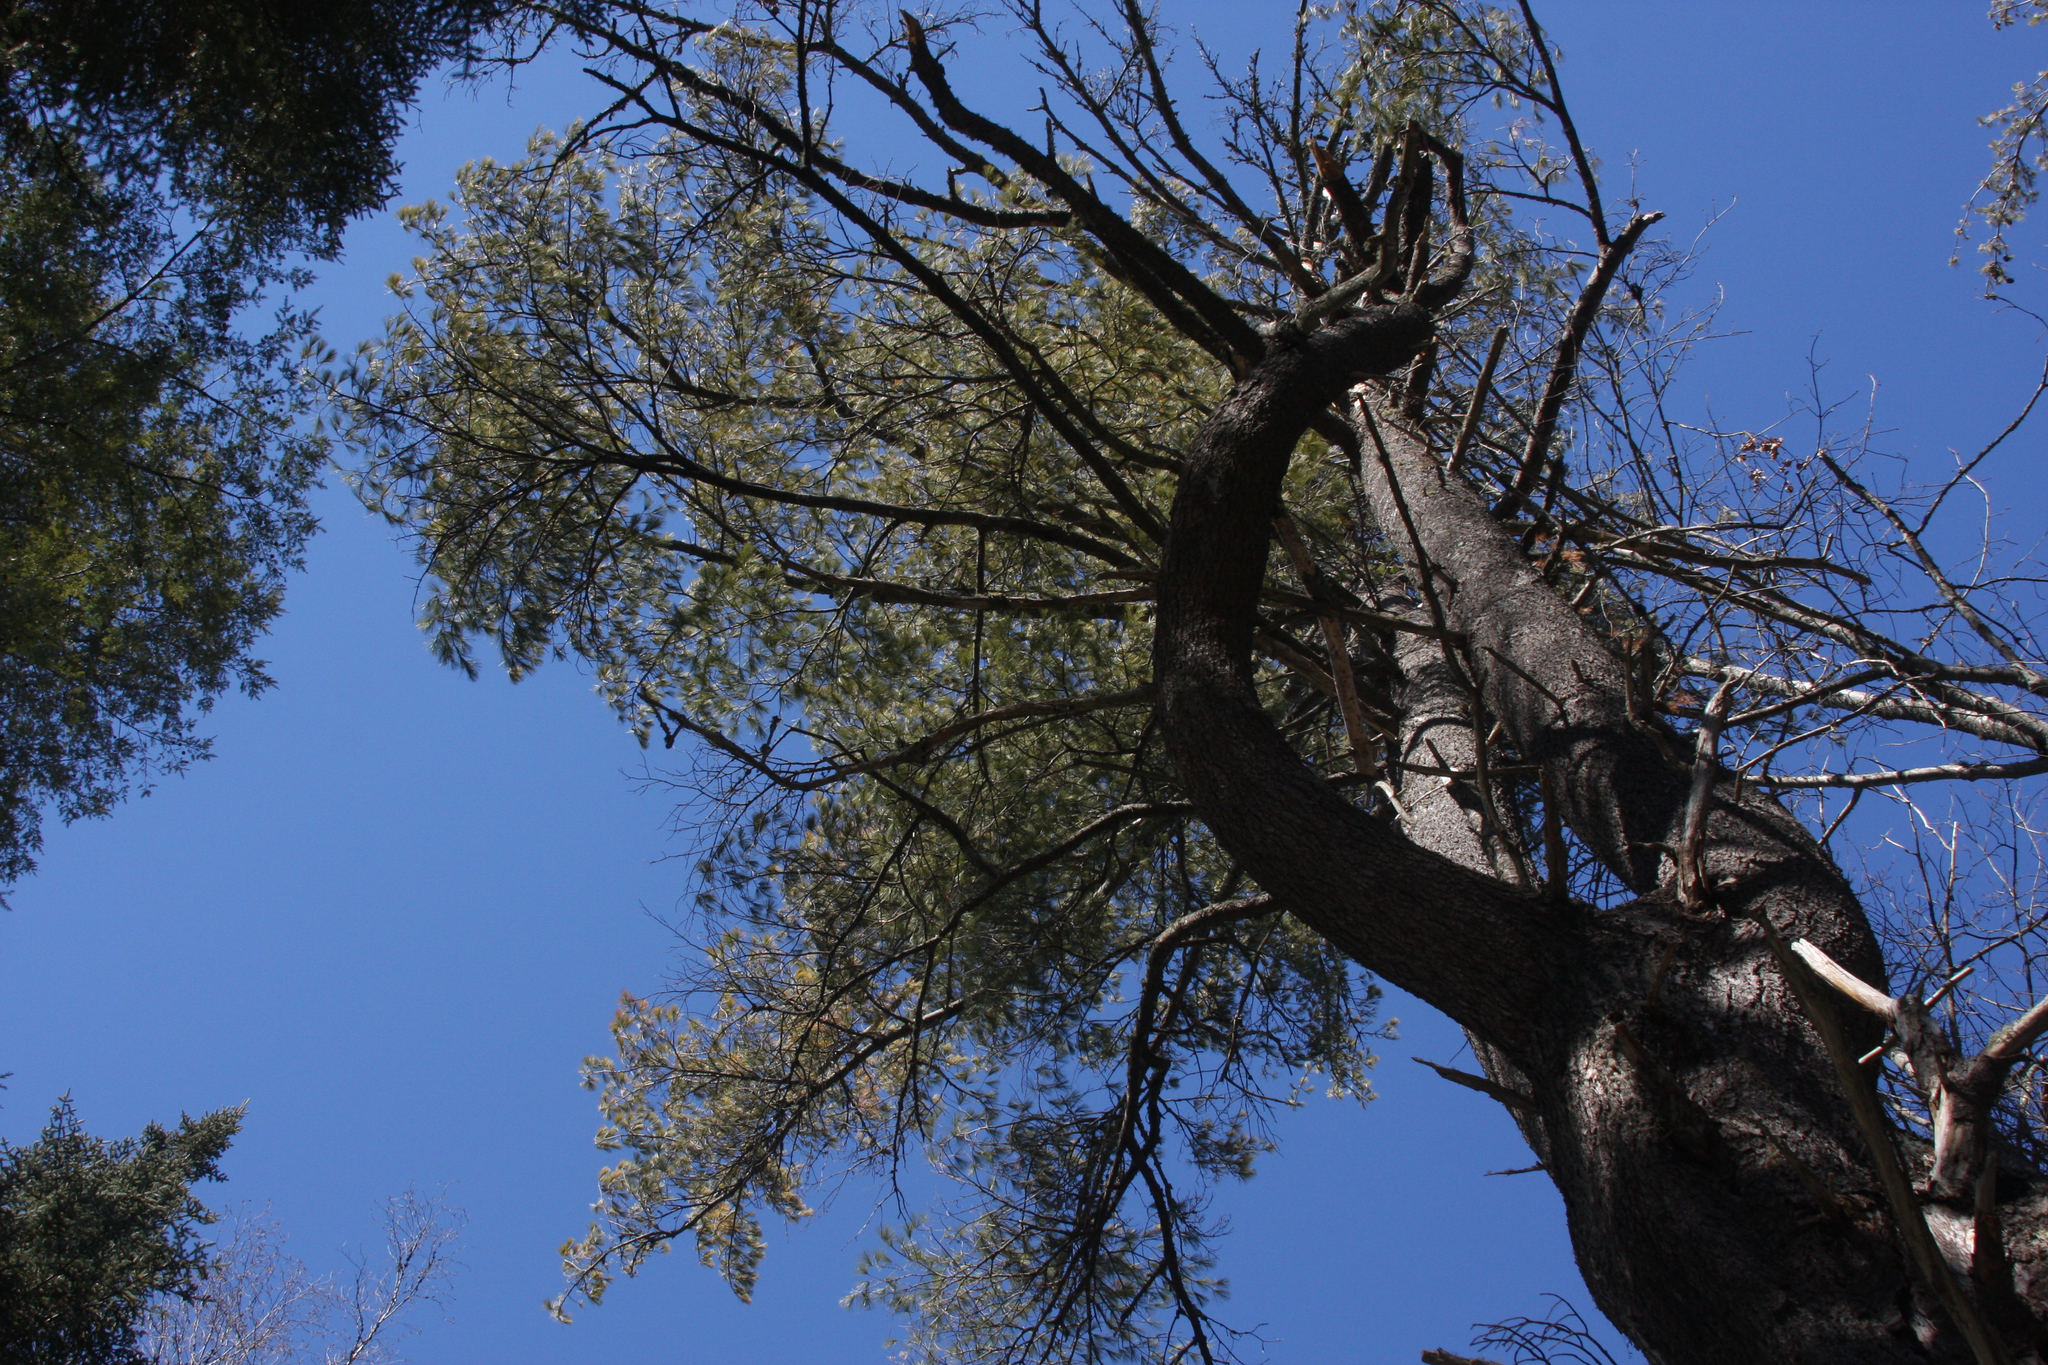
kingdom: Plantae
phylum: Tracheophyta
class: Pinopsida
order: Pinales
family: Pinaceae
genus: Pinus
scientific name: Pinus strobus
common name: Weymouth pine
